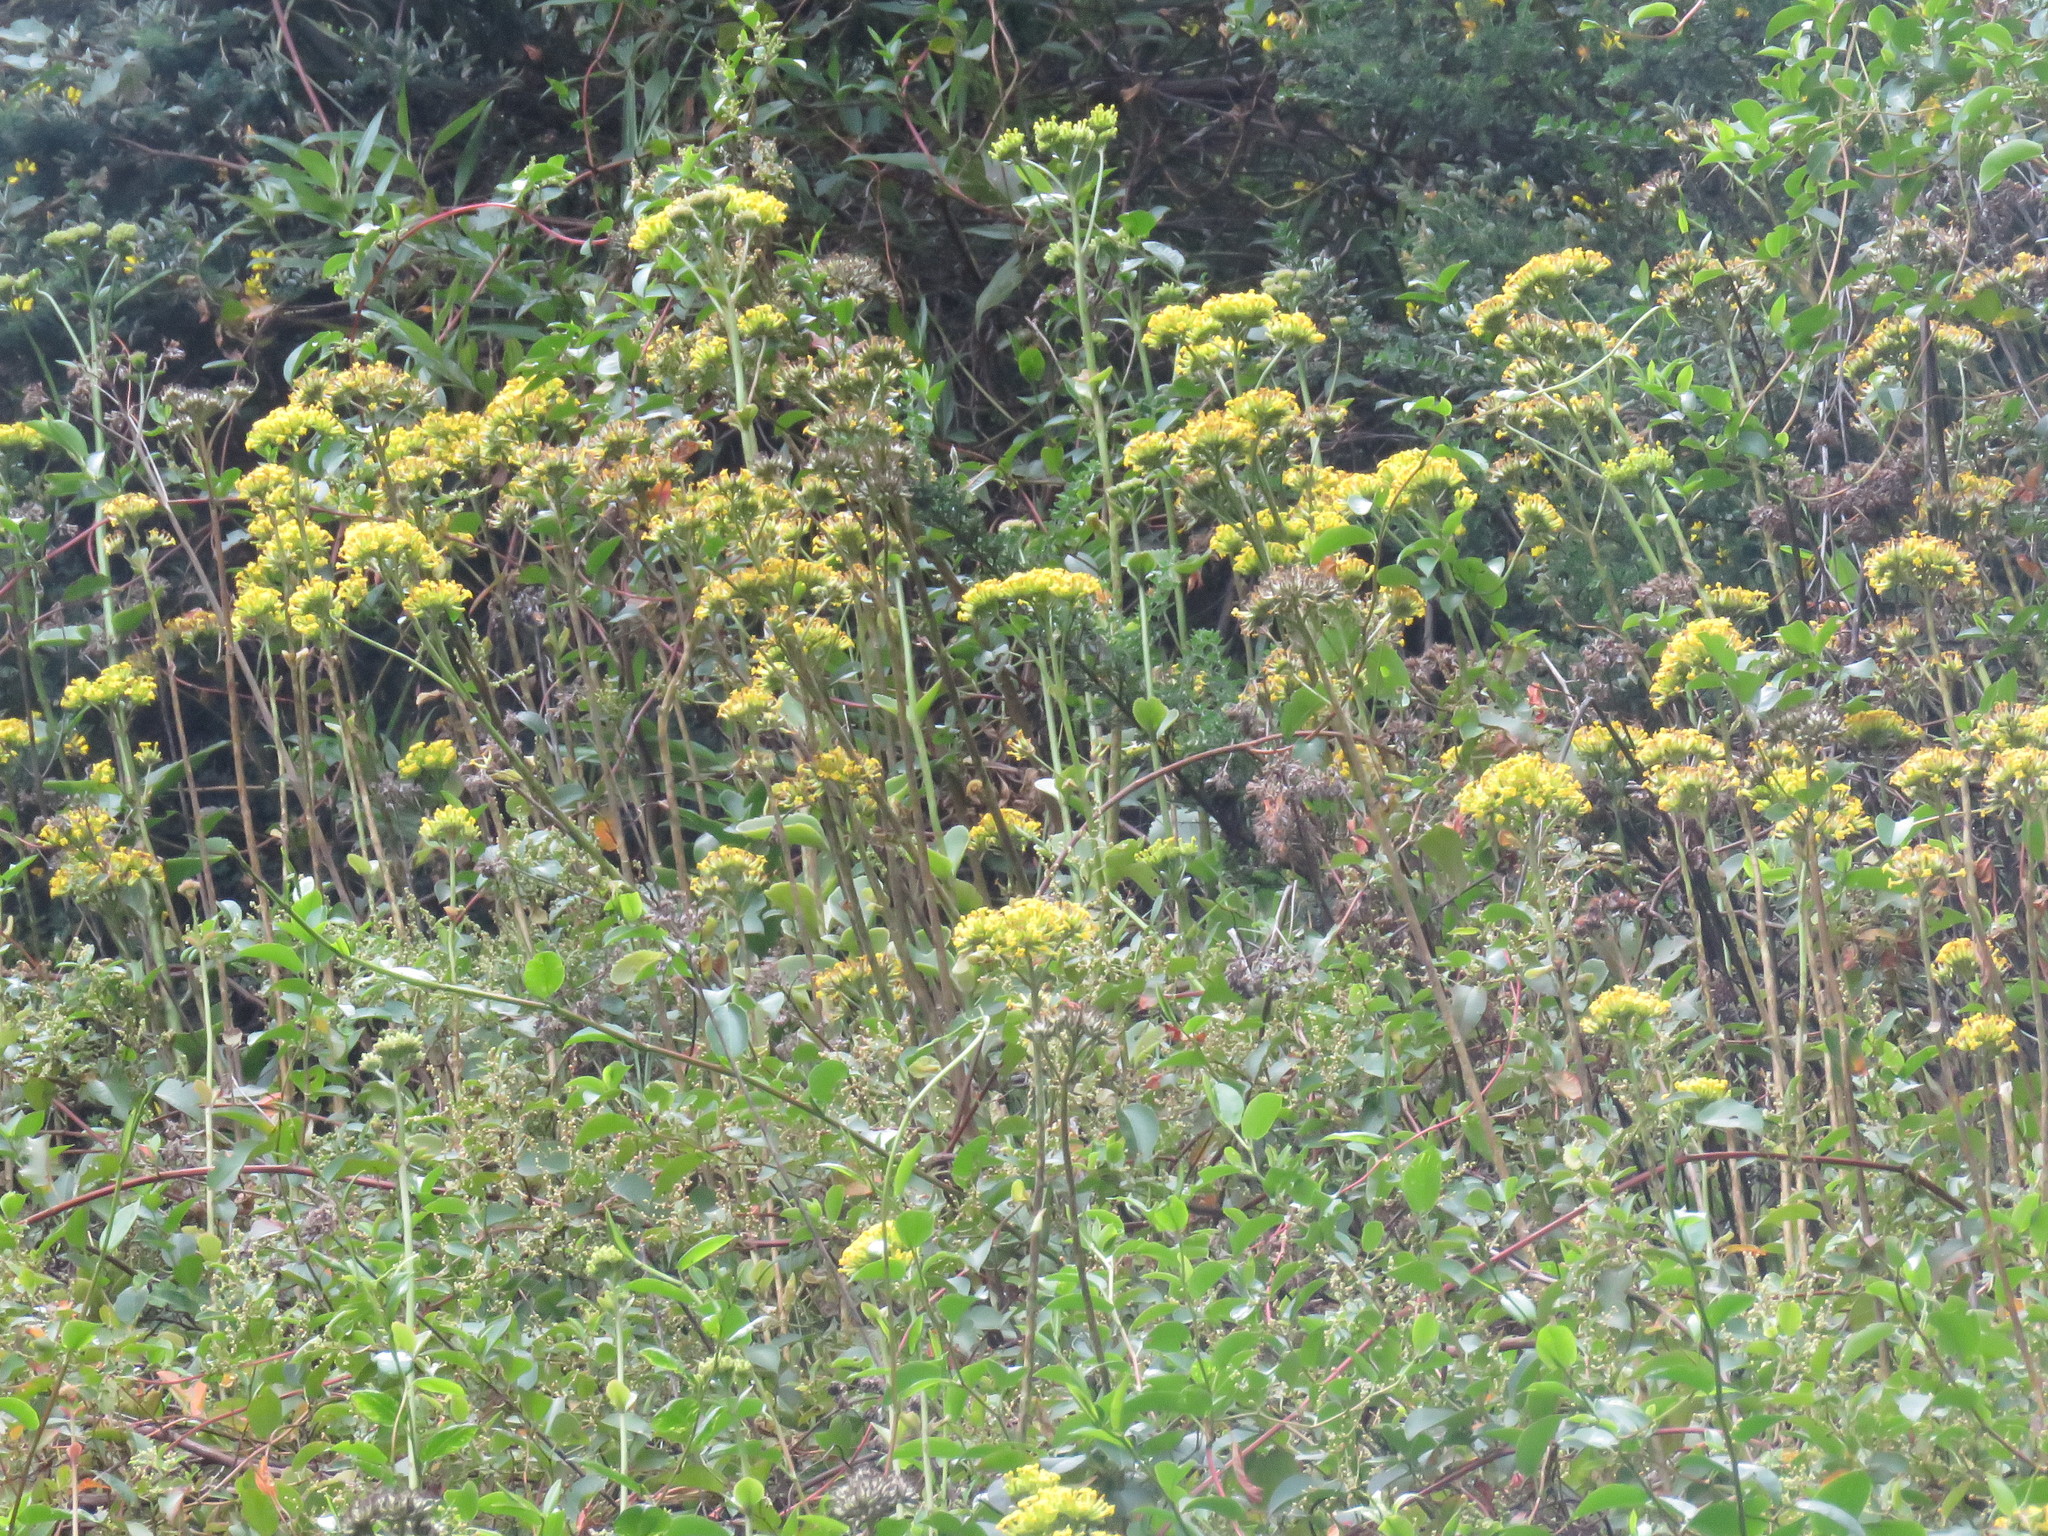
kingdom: Plantae
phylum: Tracheophyta
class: Magnoliopsida
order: Saxifragales
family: Crassulaceae
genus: Kalanchoe
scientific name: Kalanchoe densiflora
